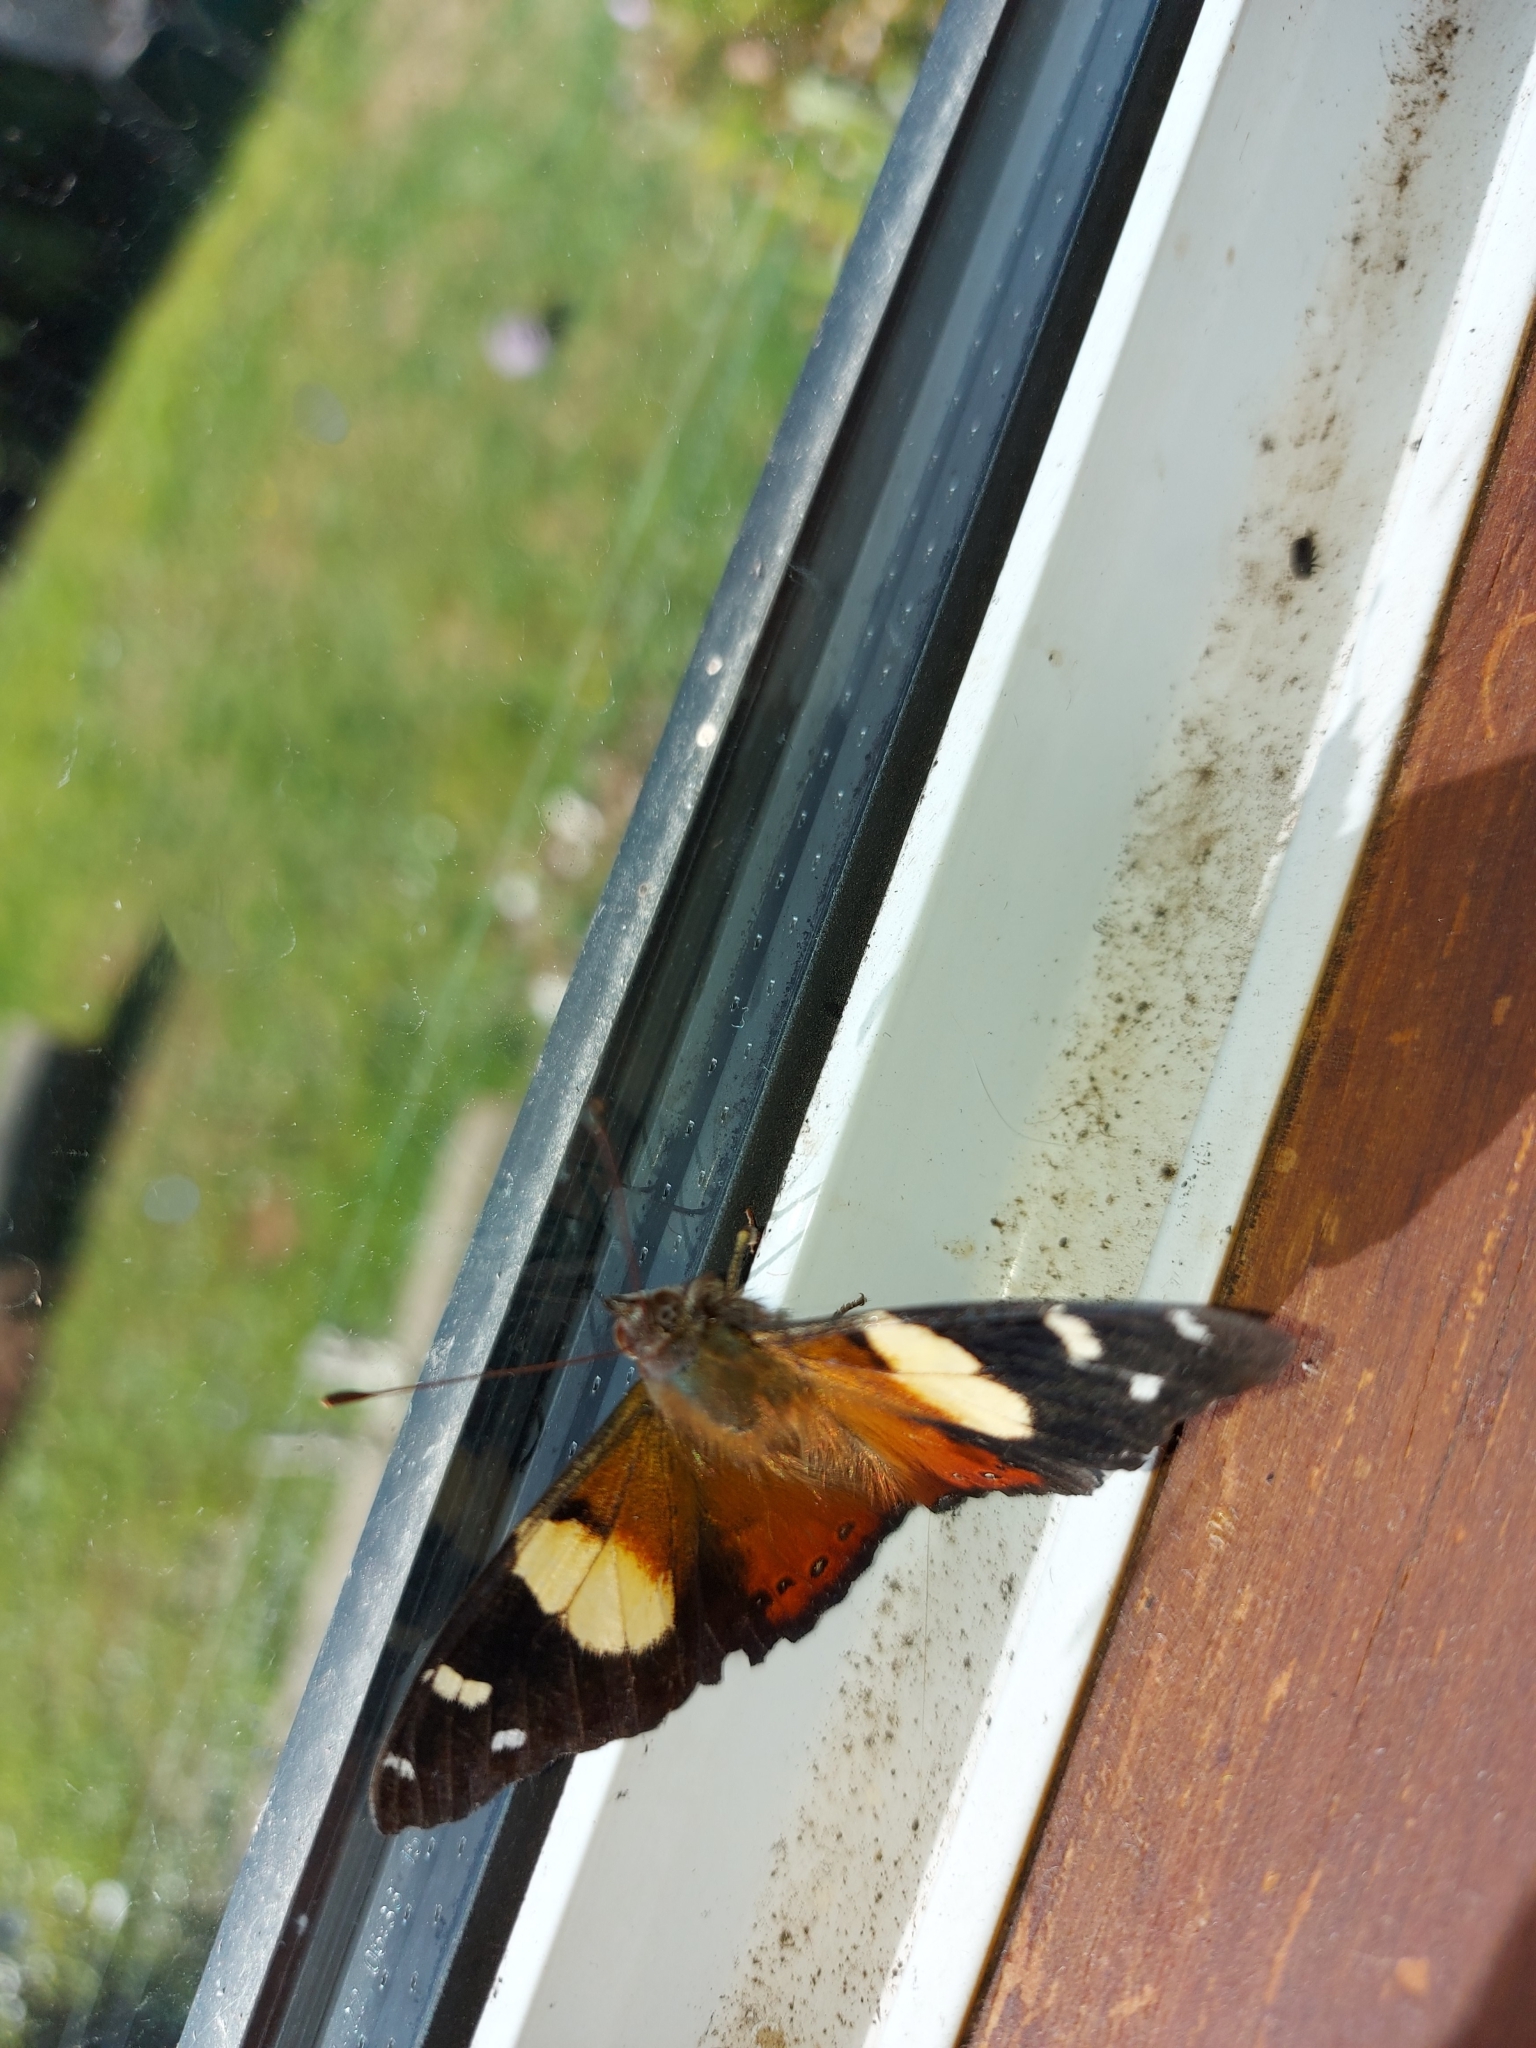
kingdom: Animalia
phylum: Arthropoda
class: Insecta
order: Lepidoptera
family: Nymphalidae
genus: Vanessa
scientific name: Vanessa itea
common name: Yellow admiral
